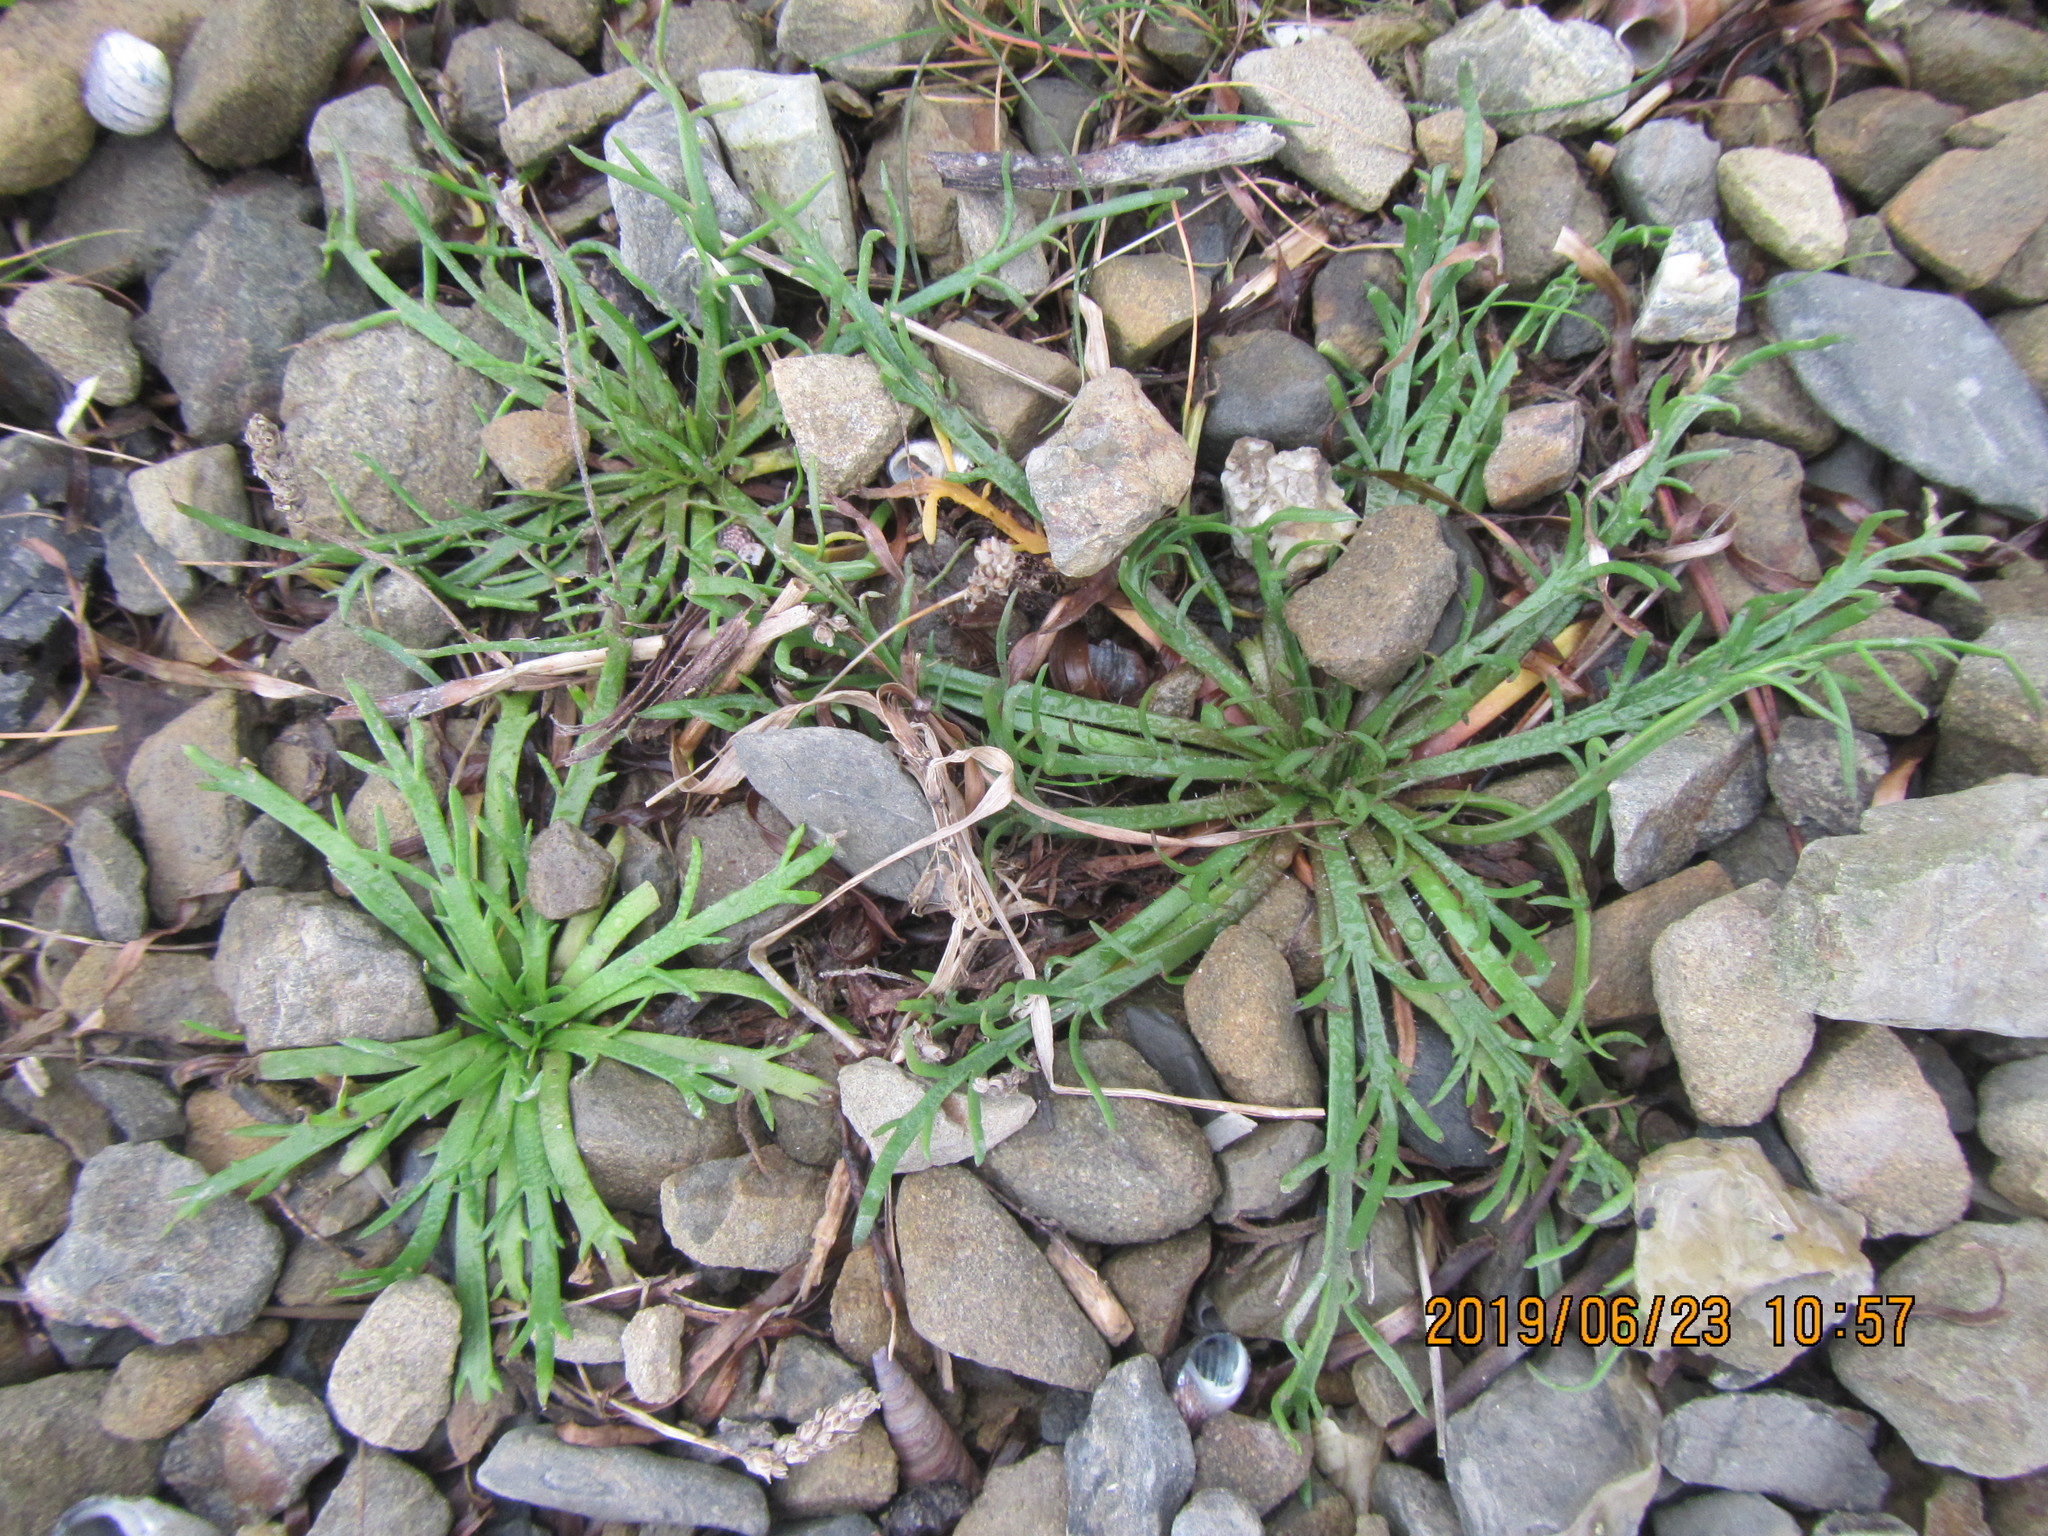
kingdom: Plantae
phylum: Tracheophyta
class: Magnoliopsida
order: Lamiales
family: Plantaginaceae
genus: Plantago
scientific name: Plantago coronopus
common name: Buck's-horn plantain
